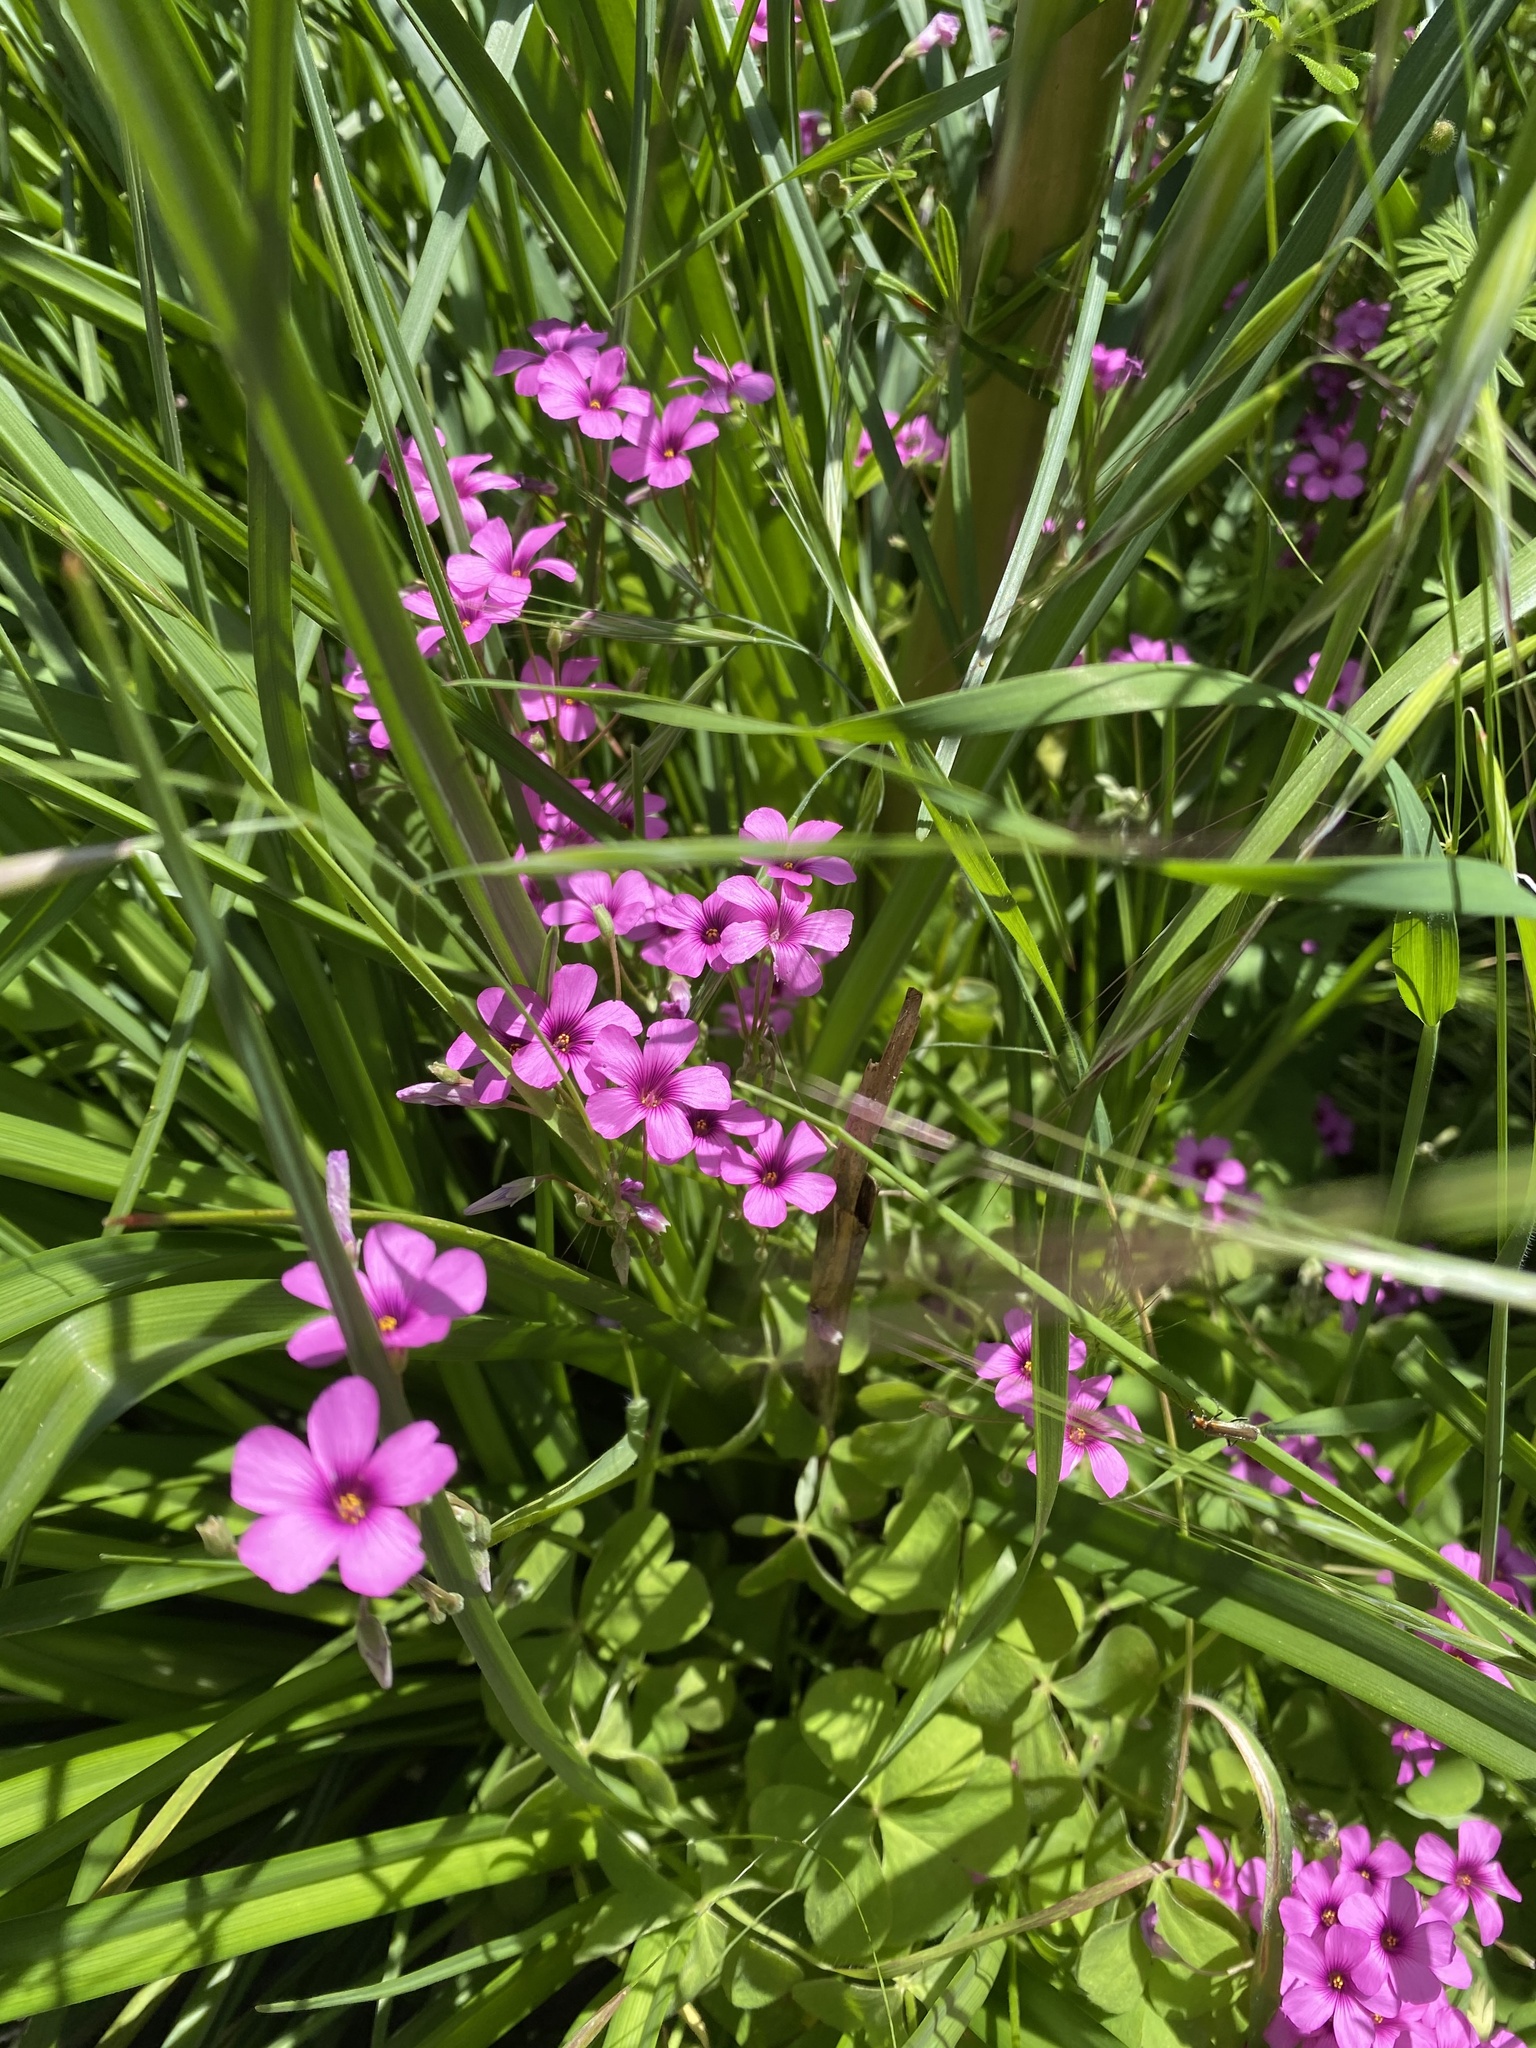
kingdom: Plantae
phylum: Tracheophyta
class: Magnoliopsida
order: Oxalidales
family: Oxalidaceae
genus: Oxalis
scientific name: Oxalis articulata
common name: Pink-sorrel
